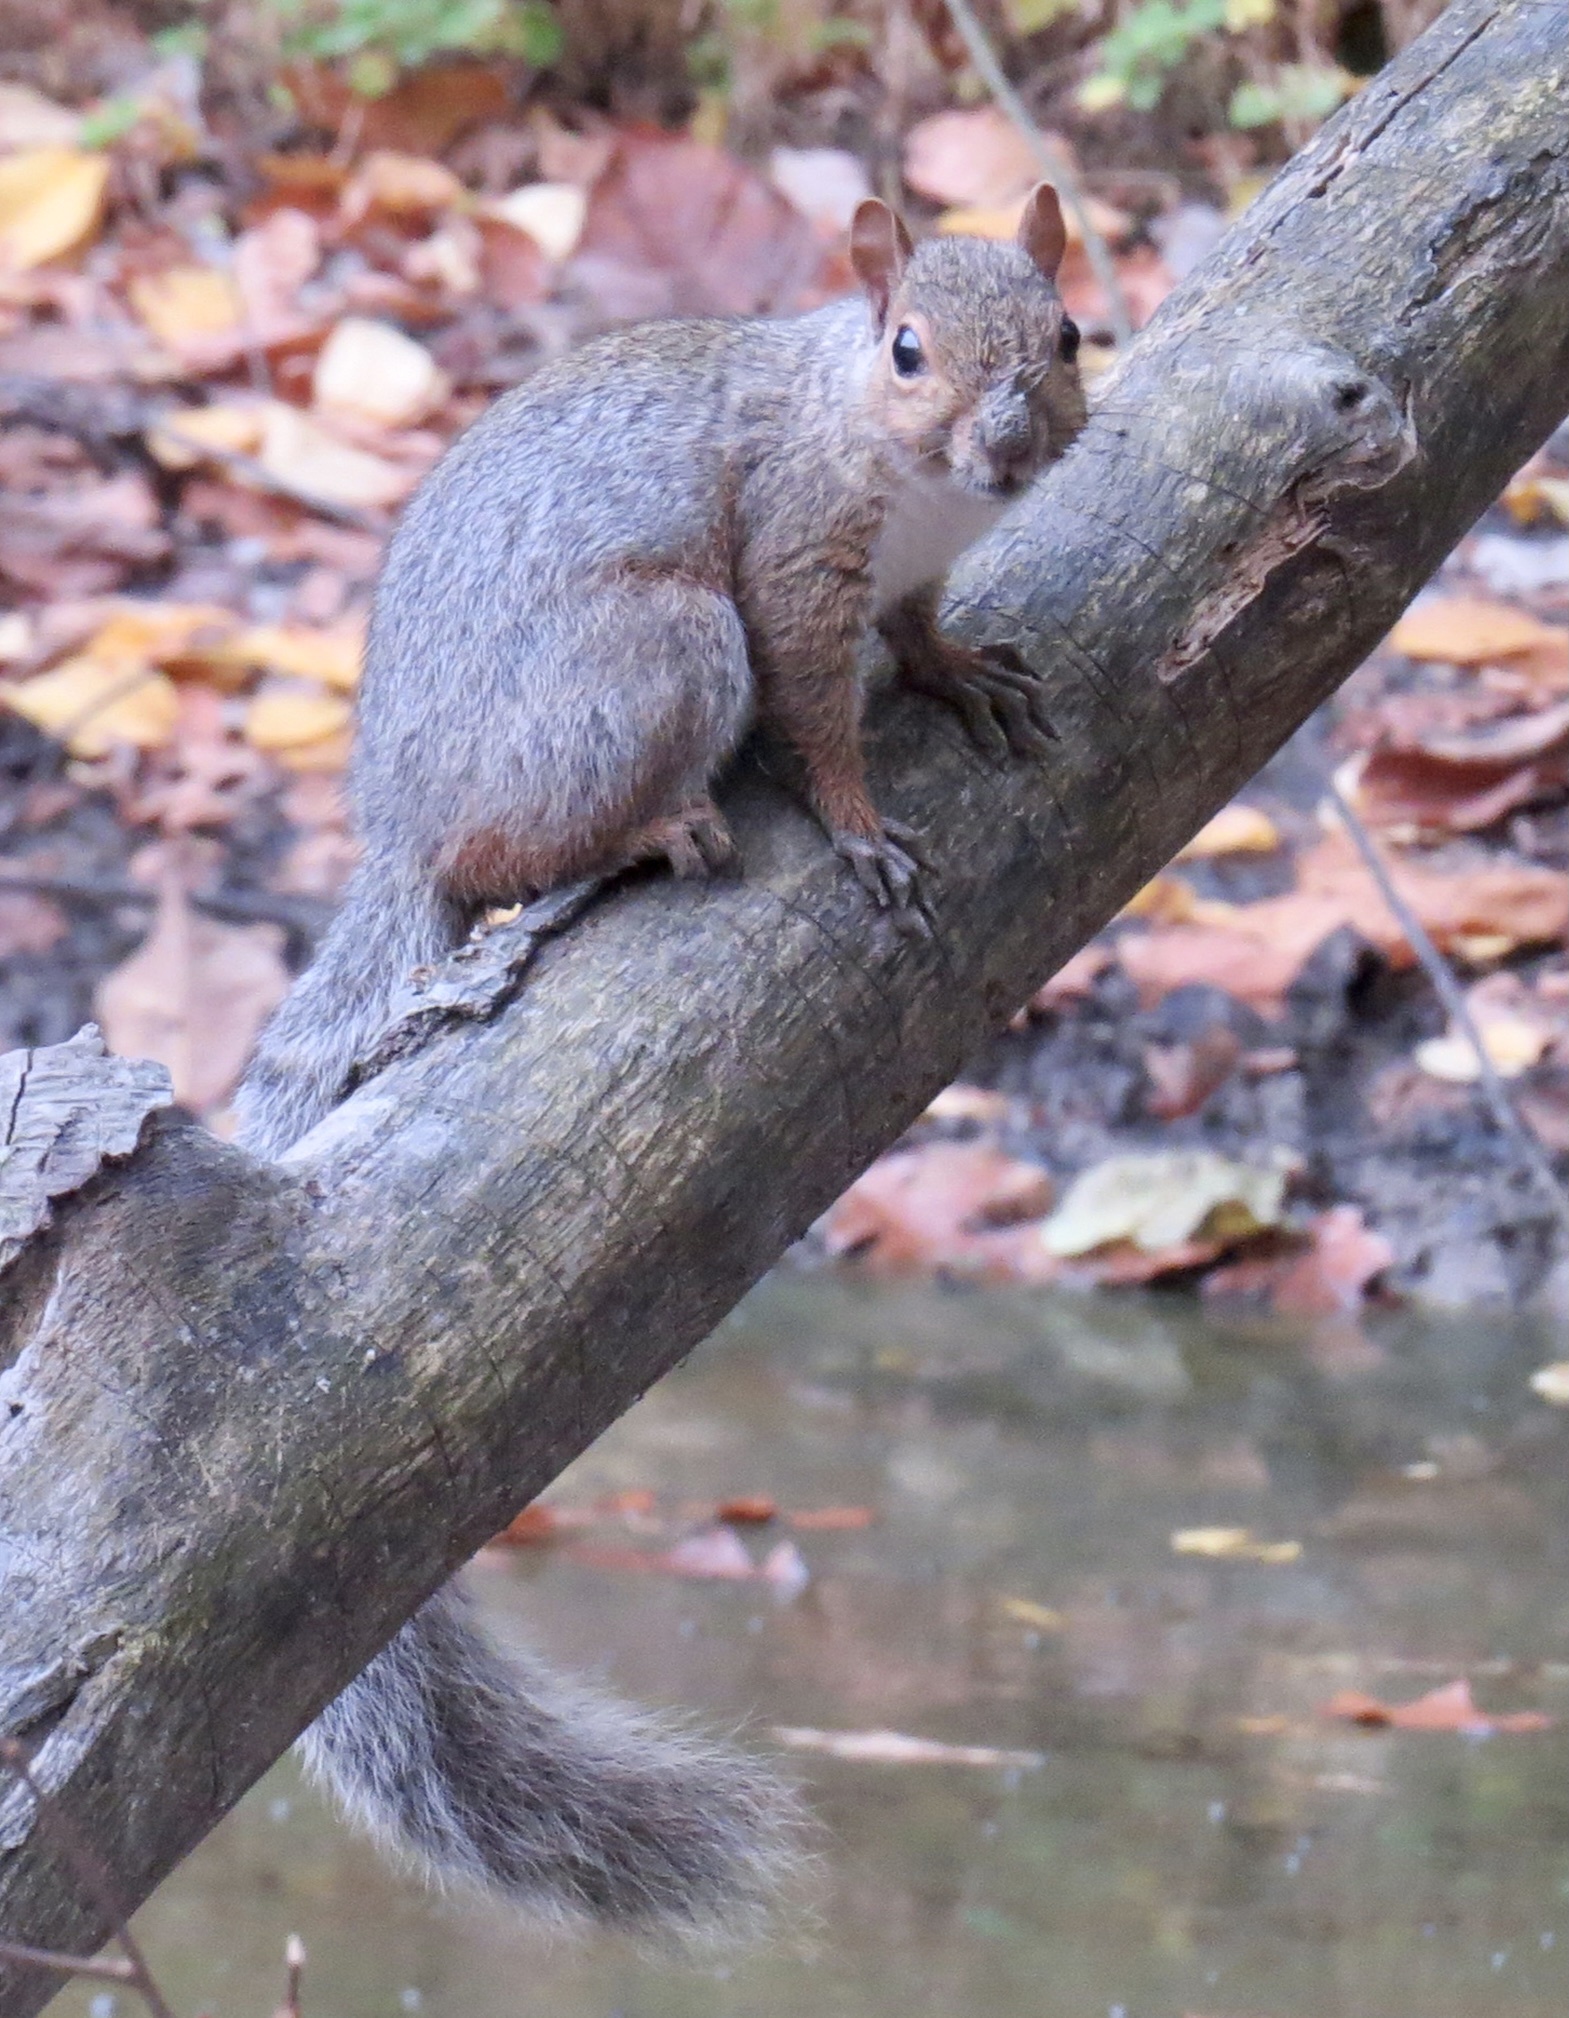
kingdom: Animalia
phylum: Chordata
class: Mammalia
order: Rodentia
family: Sciuridae
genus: Sciurus
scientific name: Sciurus carolinensis
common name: Eastern gray squirrel
